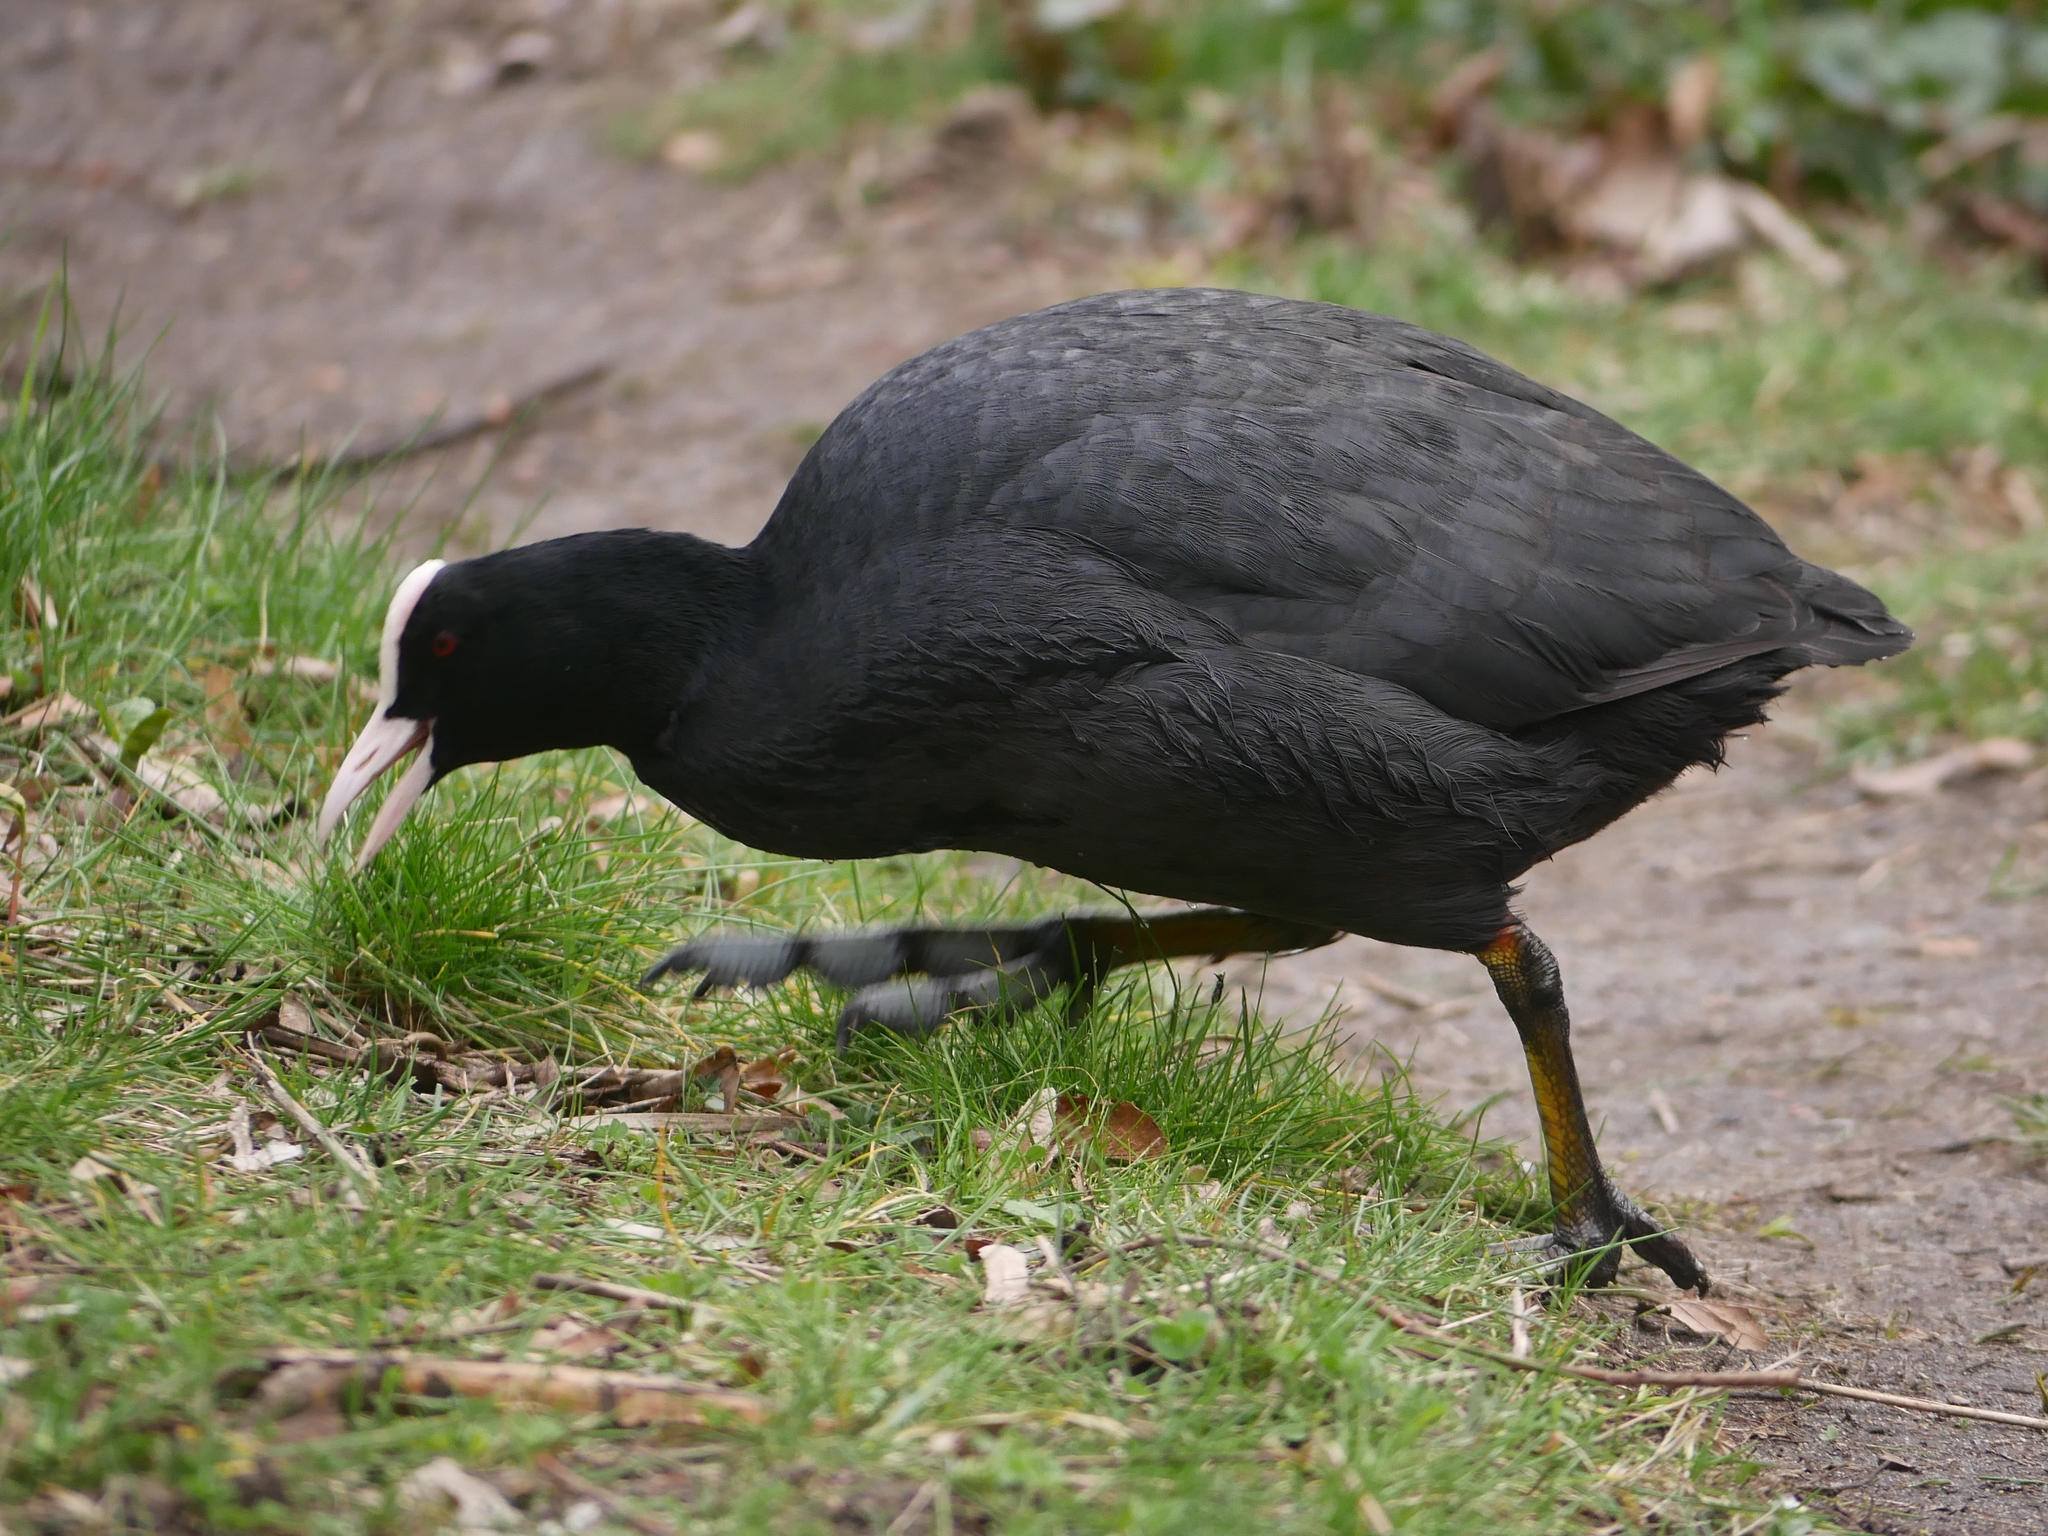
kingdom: Animalia
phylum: Chordata
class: Aves
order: Gruiformes
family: Rallidae
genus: Fulica
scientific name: Fulica atra
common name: Eurasian coot
